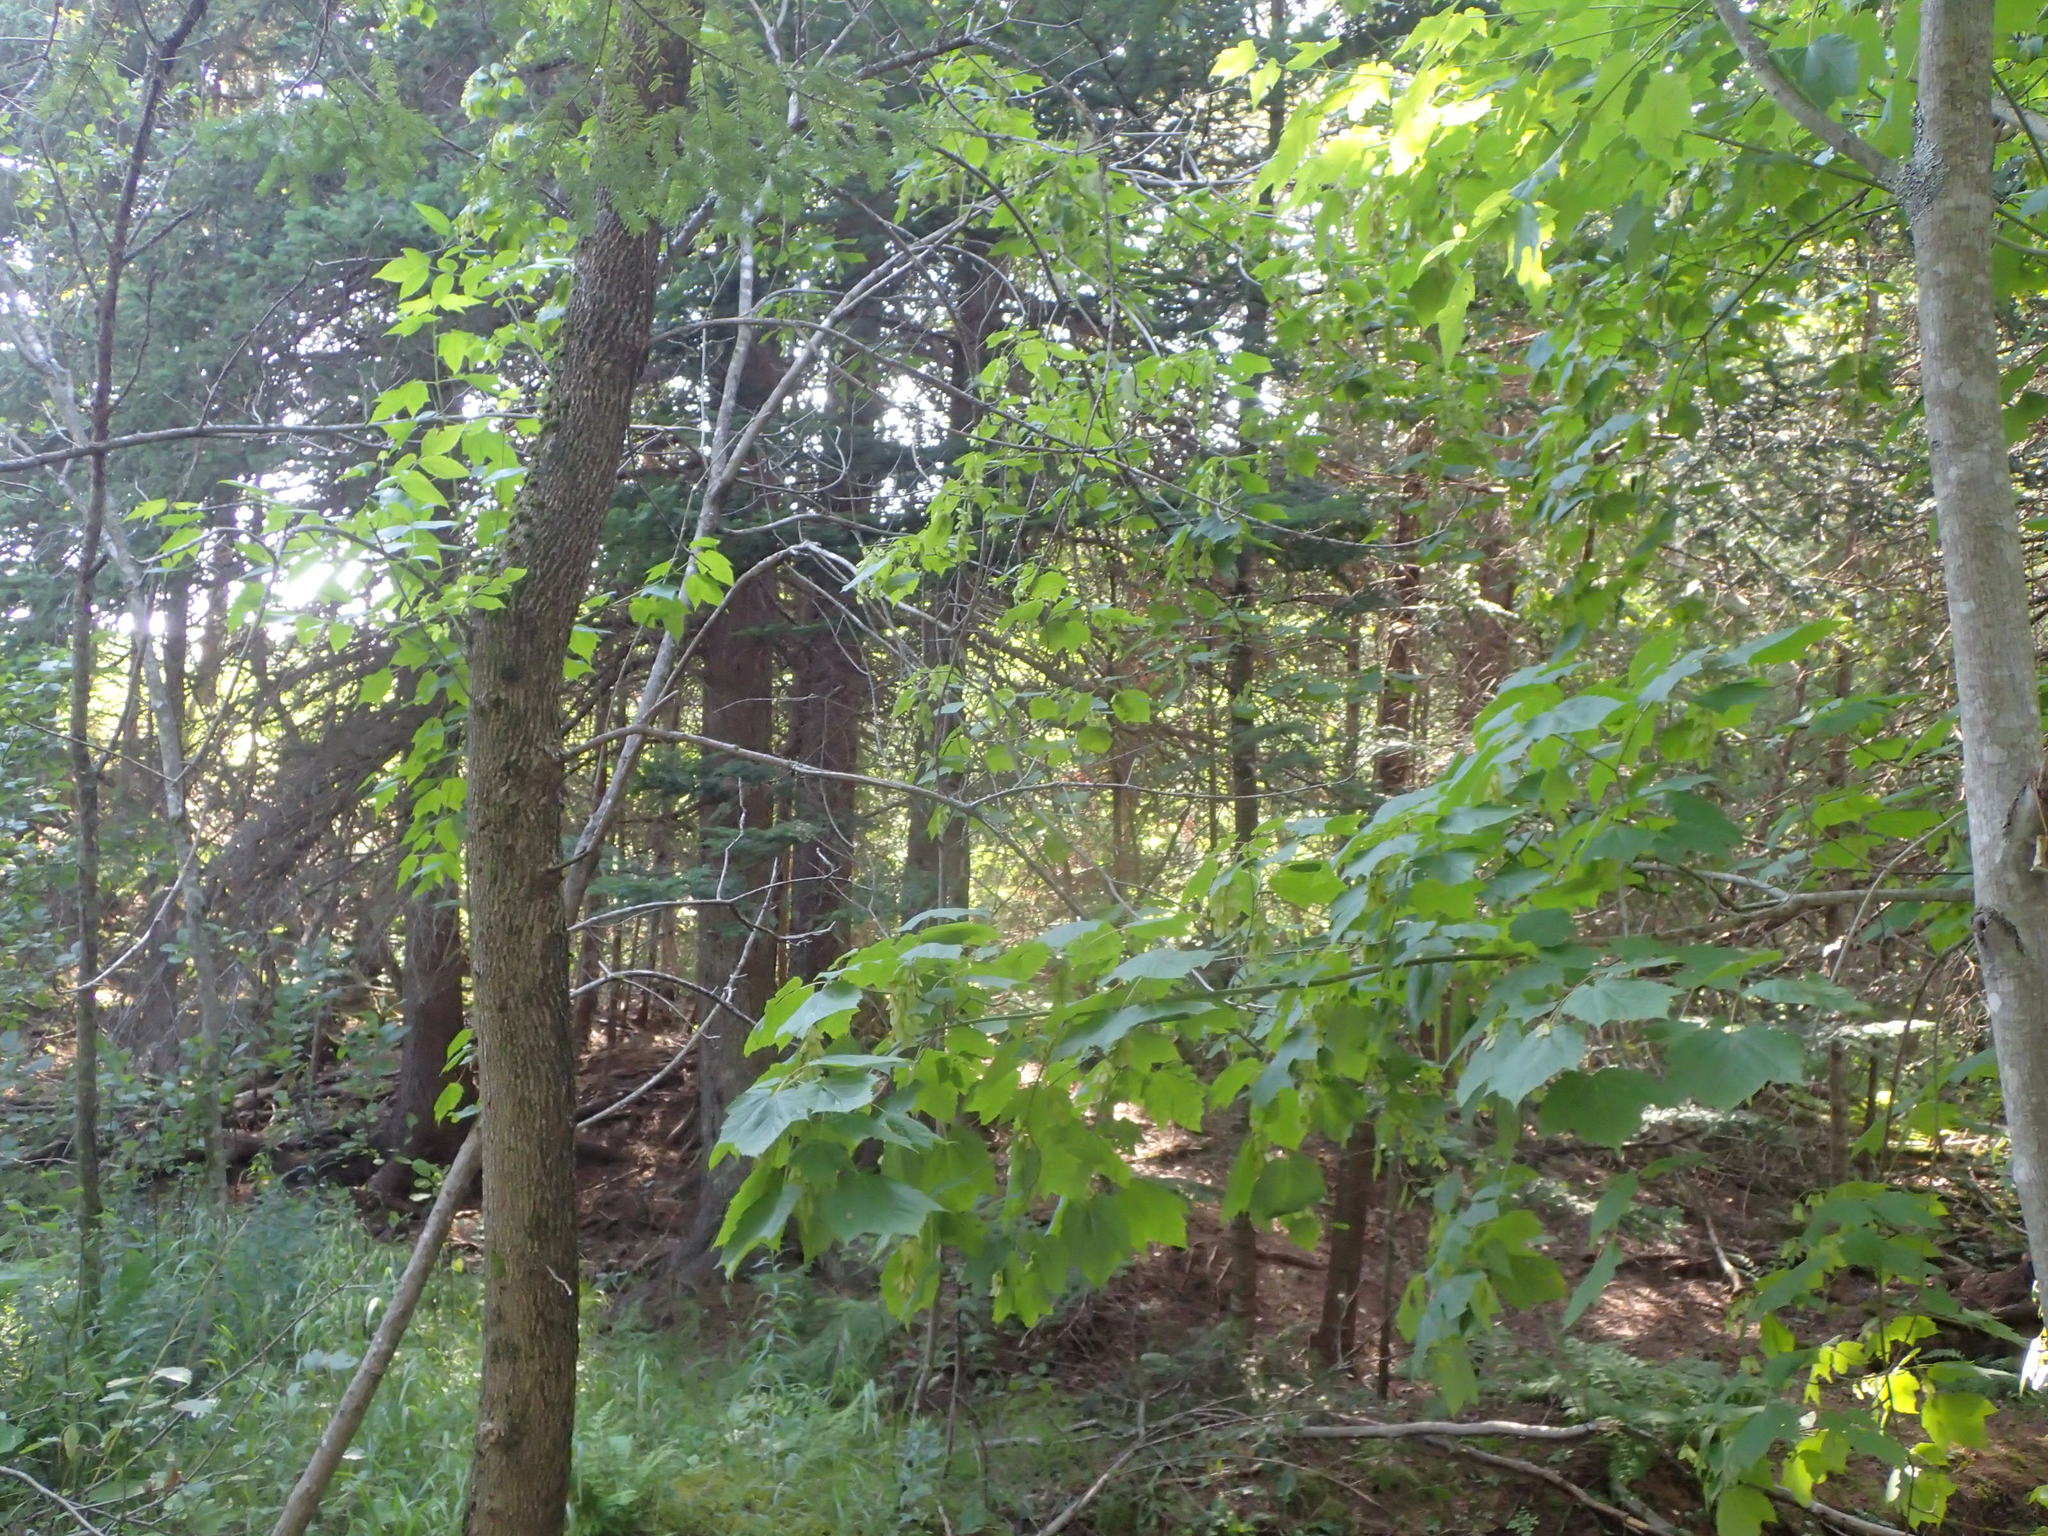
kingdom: Plantae
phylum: Tracheophyta
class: Magnoliopsida
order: Sapindales
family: Sapindaceae
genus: Acer
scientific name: Acer spicatum
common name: Mountain maple
